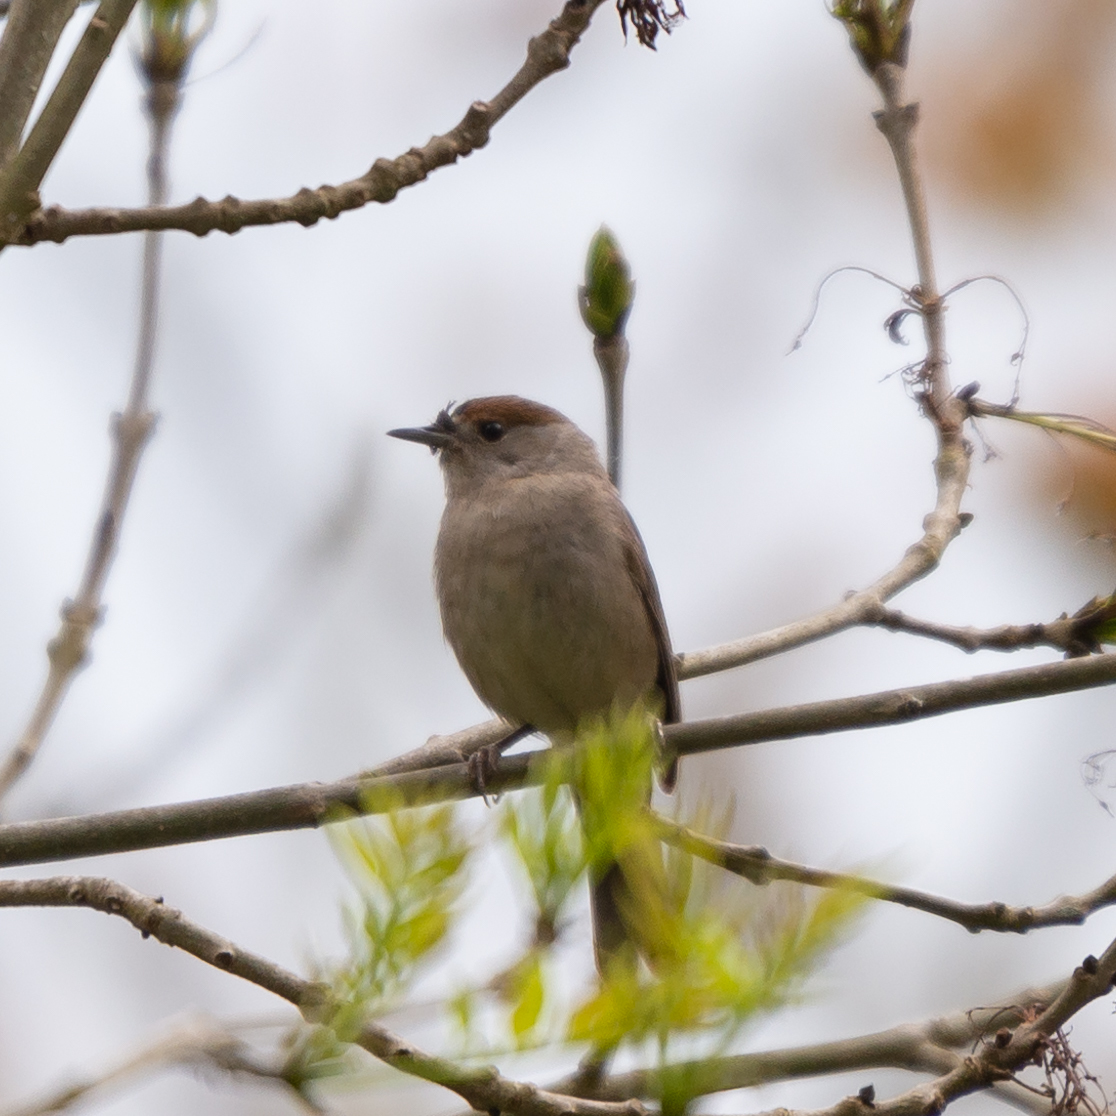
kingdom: Animalia
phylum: Chordata
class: Aves
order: Passeriformes
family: Sylviidae
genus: Sylvia
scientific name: Sylvia atricapilla
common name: Eurasian blackcap
